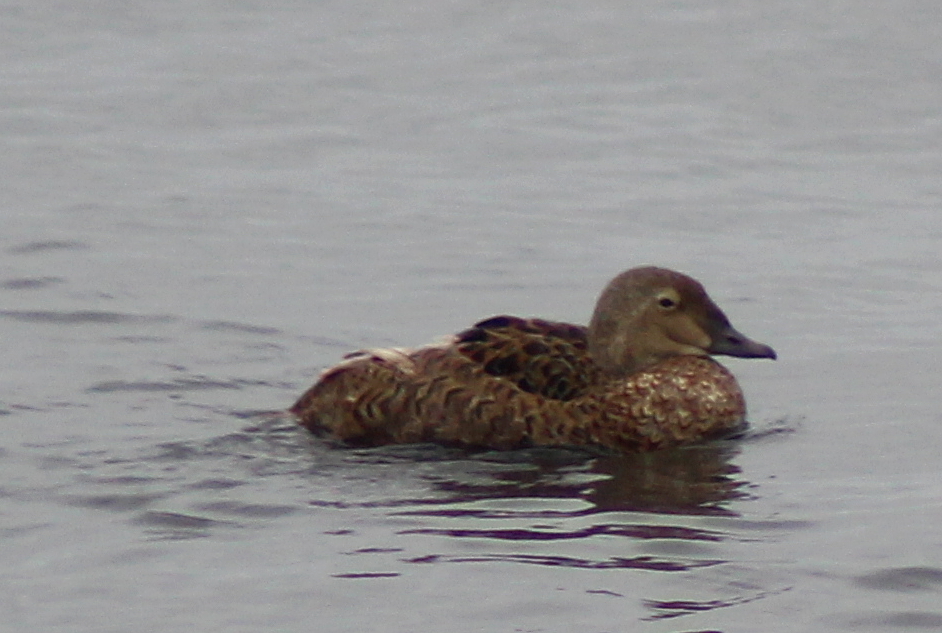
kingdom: Animalia
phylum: Chordata
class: Aves
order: Anseriformes
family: Anatidae
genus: Somateria
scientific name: Somateria spectabilis
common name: King eider
